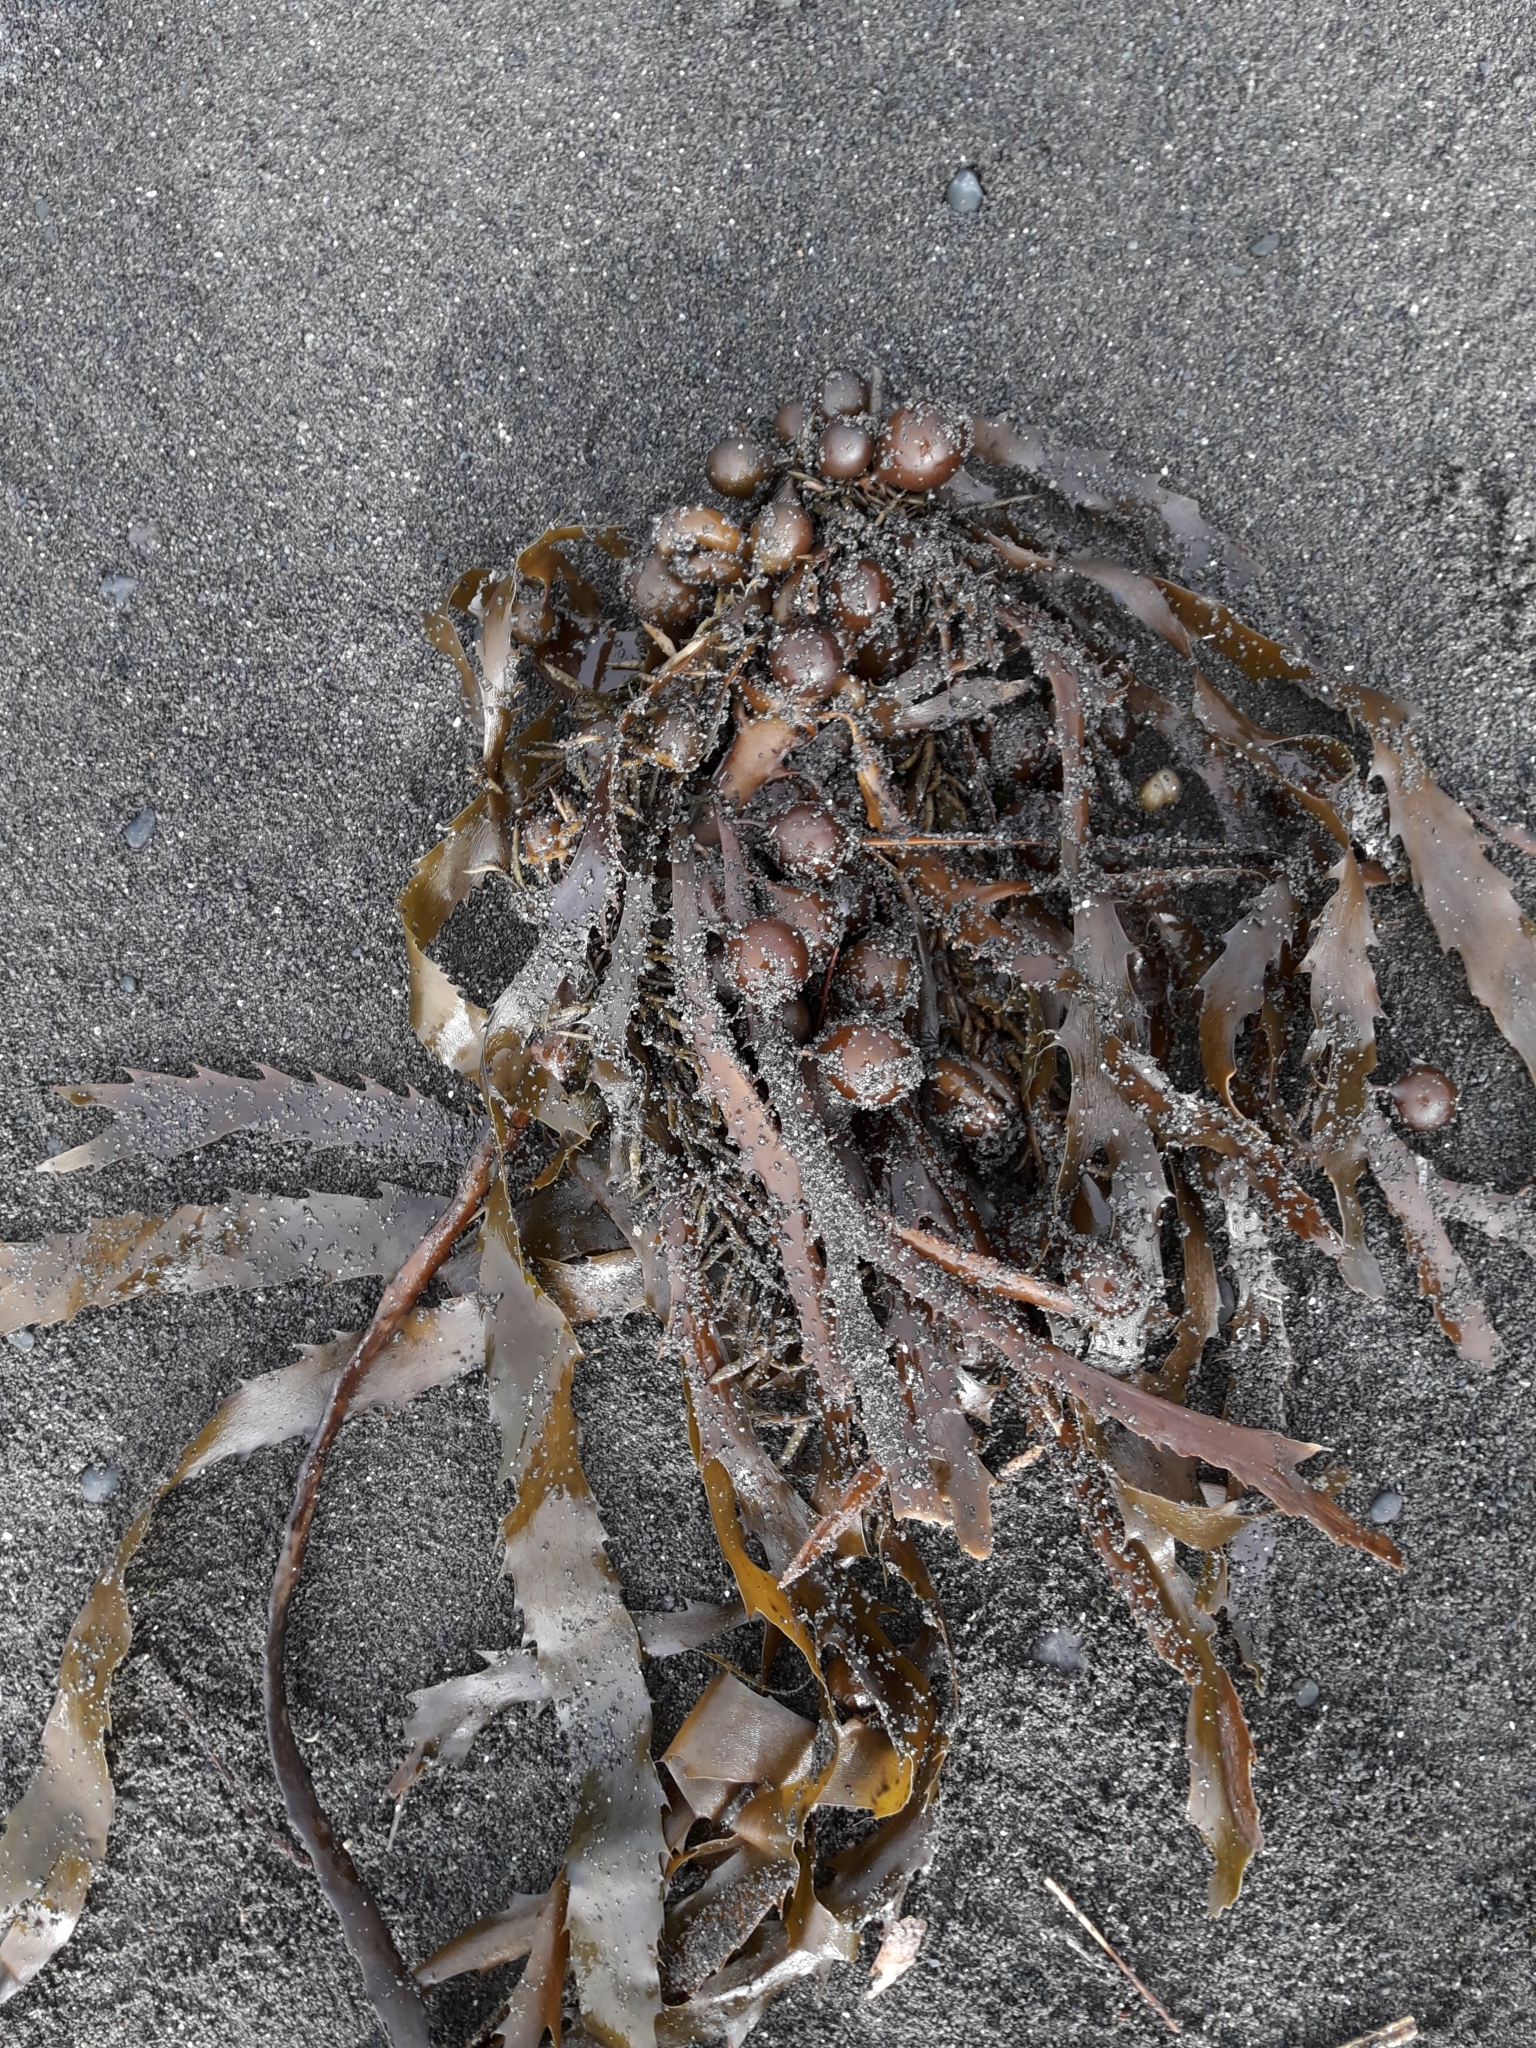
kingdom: Chromista
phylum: Ochrophyta
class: Phaeophyceae
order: Fucales
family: Seirococcaceae
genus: Marginariella
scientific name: Marginariella urvilliana
